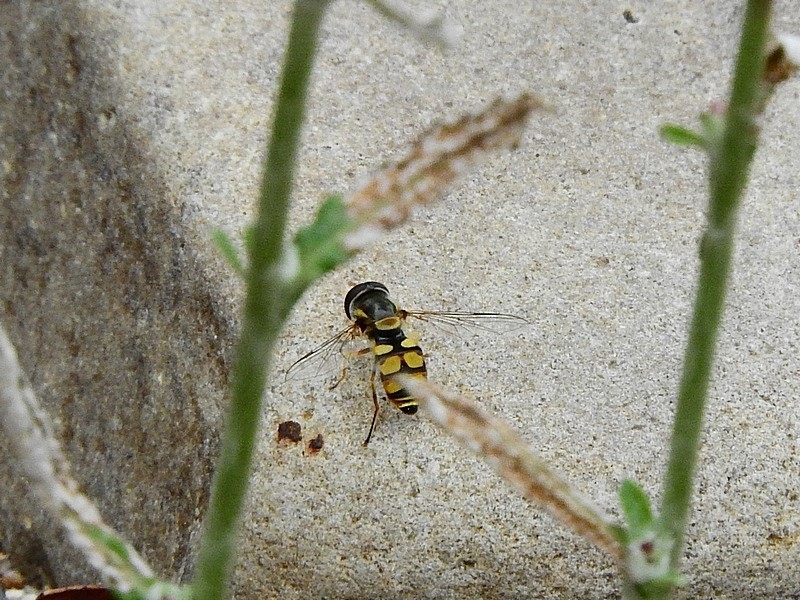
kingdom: Animalia
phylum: Arthropoda
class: Insecta
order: Diptera
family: Syrphidae
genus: Simosyrphus
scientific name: Simosyrphus grandicornis
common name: Hoverfly
